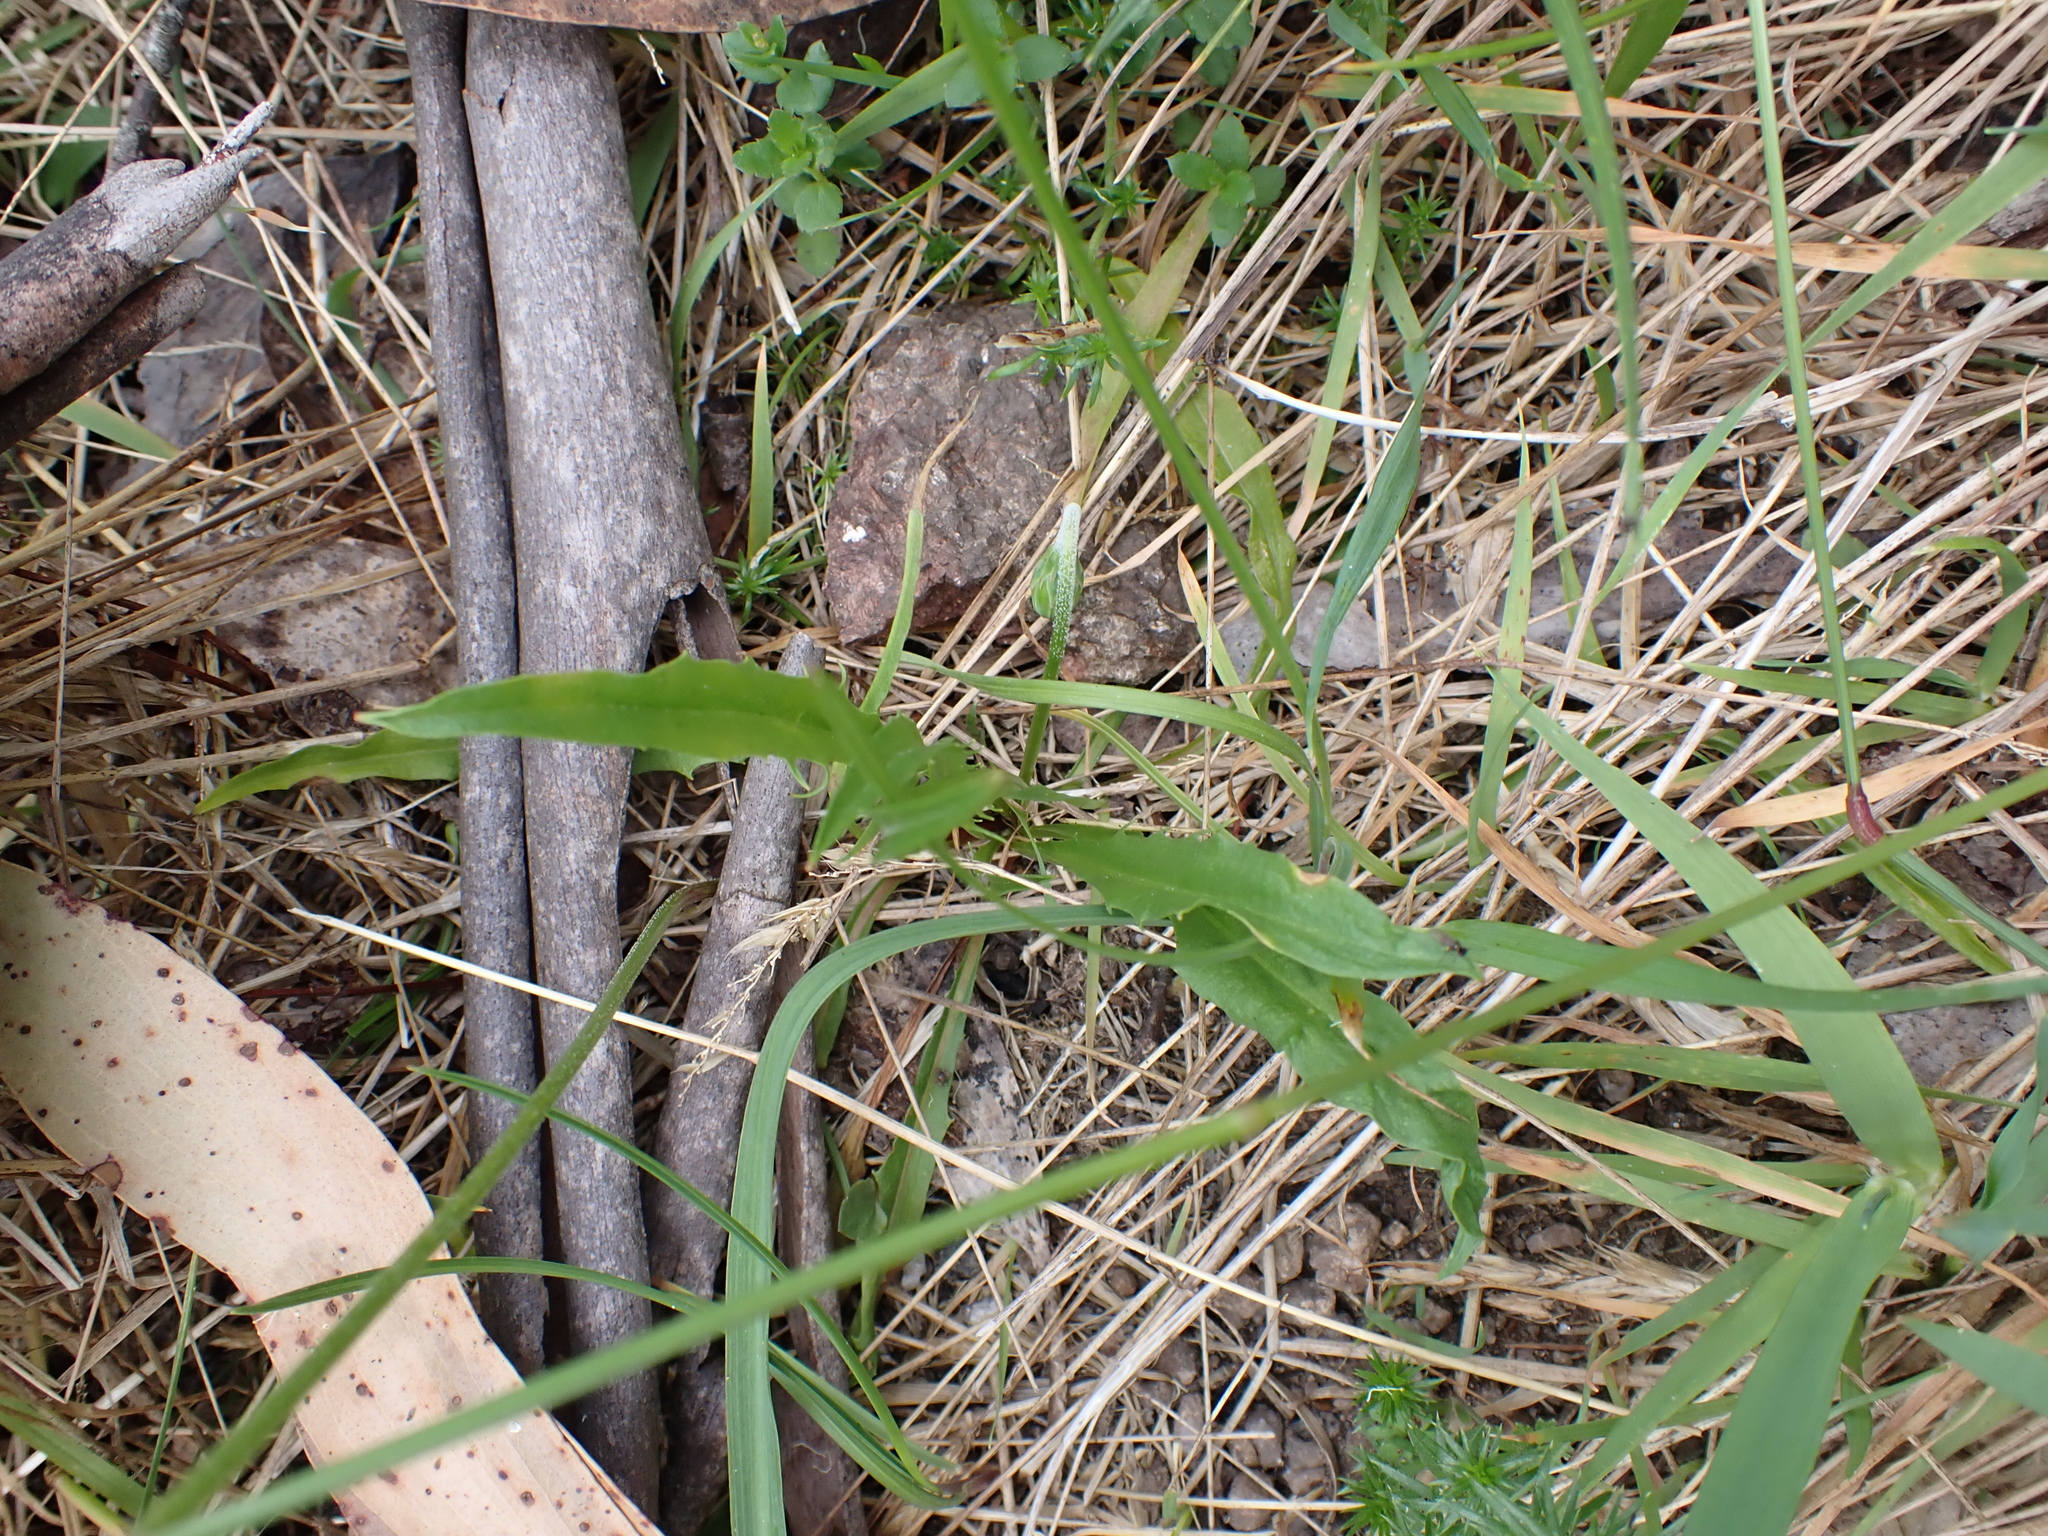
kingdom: Plantae
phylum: Tracheophyta
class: Magnoliopsida
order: Asterales
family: Asteraceae
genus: Microseris
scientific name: Microseris lanceolata
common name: Yam daisy
